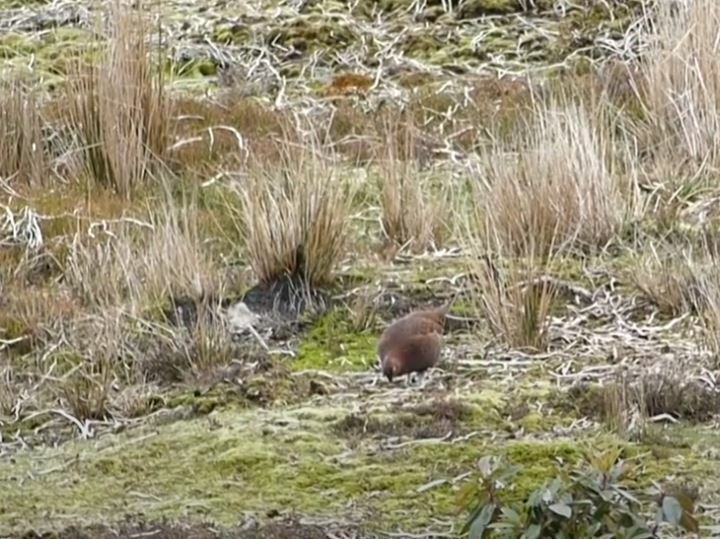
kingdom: Animalia
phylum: Chordata
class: Aves
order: Galliformes
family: Phasianidae
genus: Lagopus
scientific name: Lagopus lagopus
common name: Willow ptarmigan
